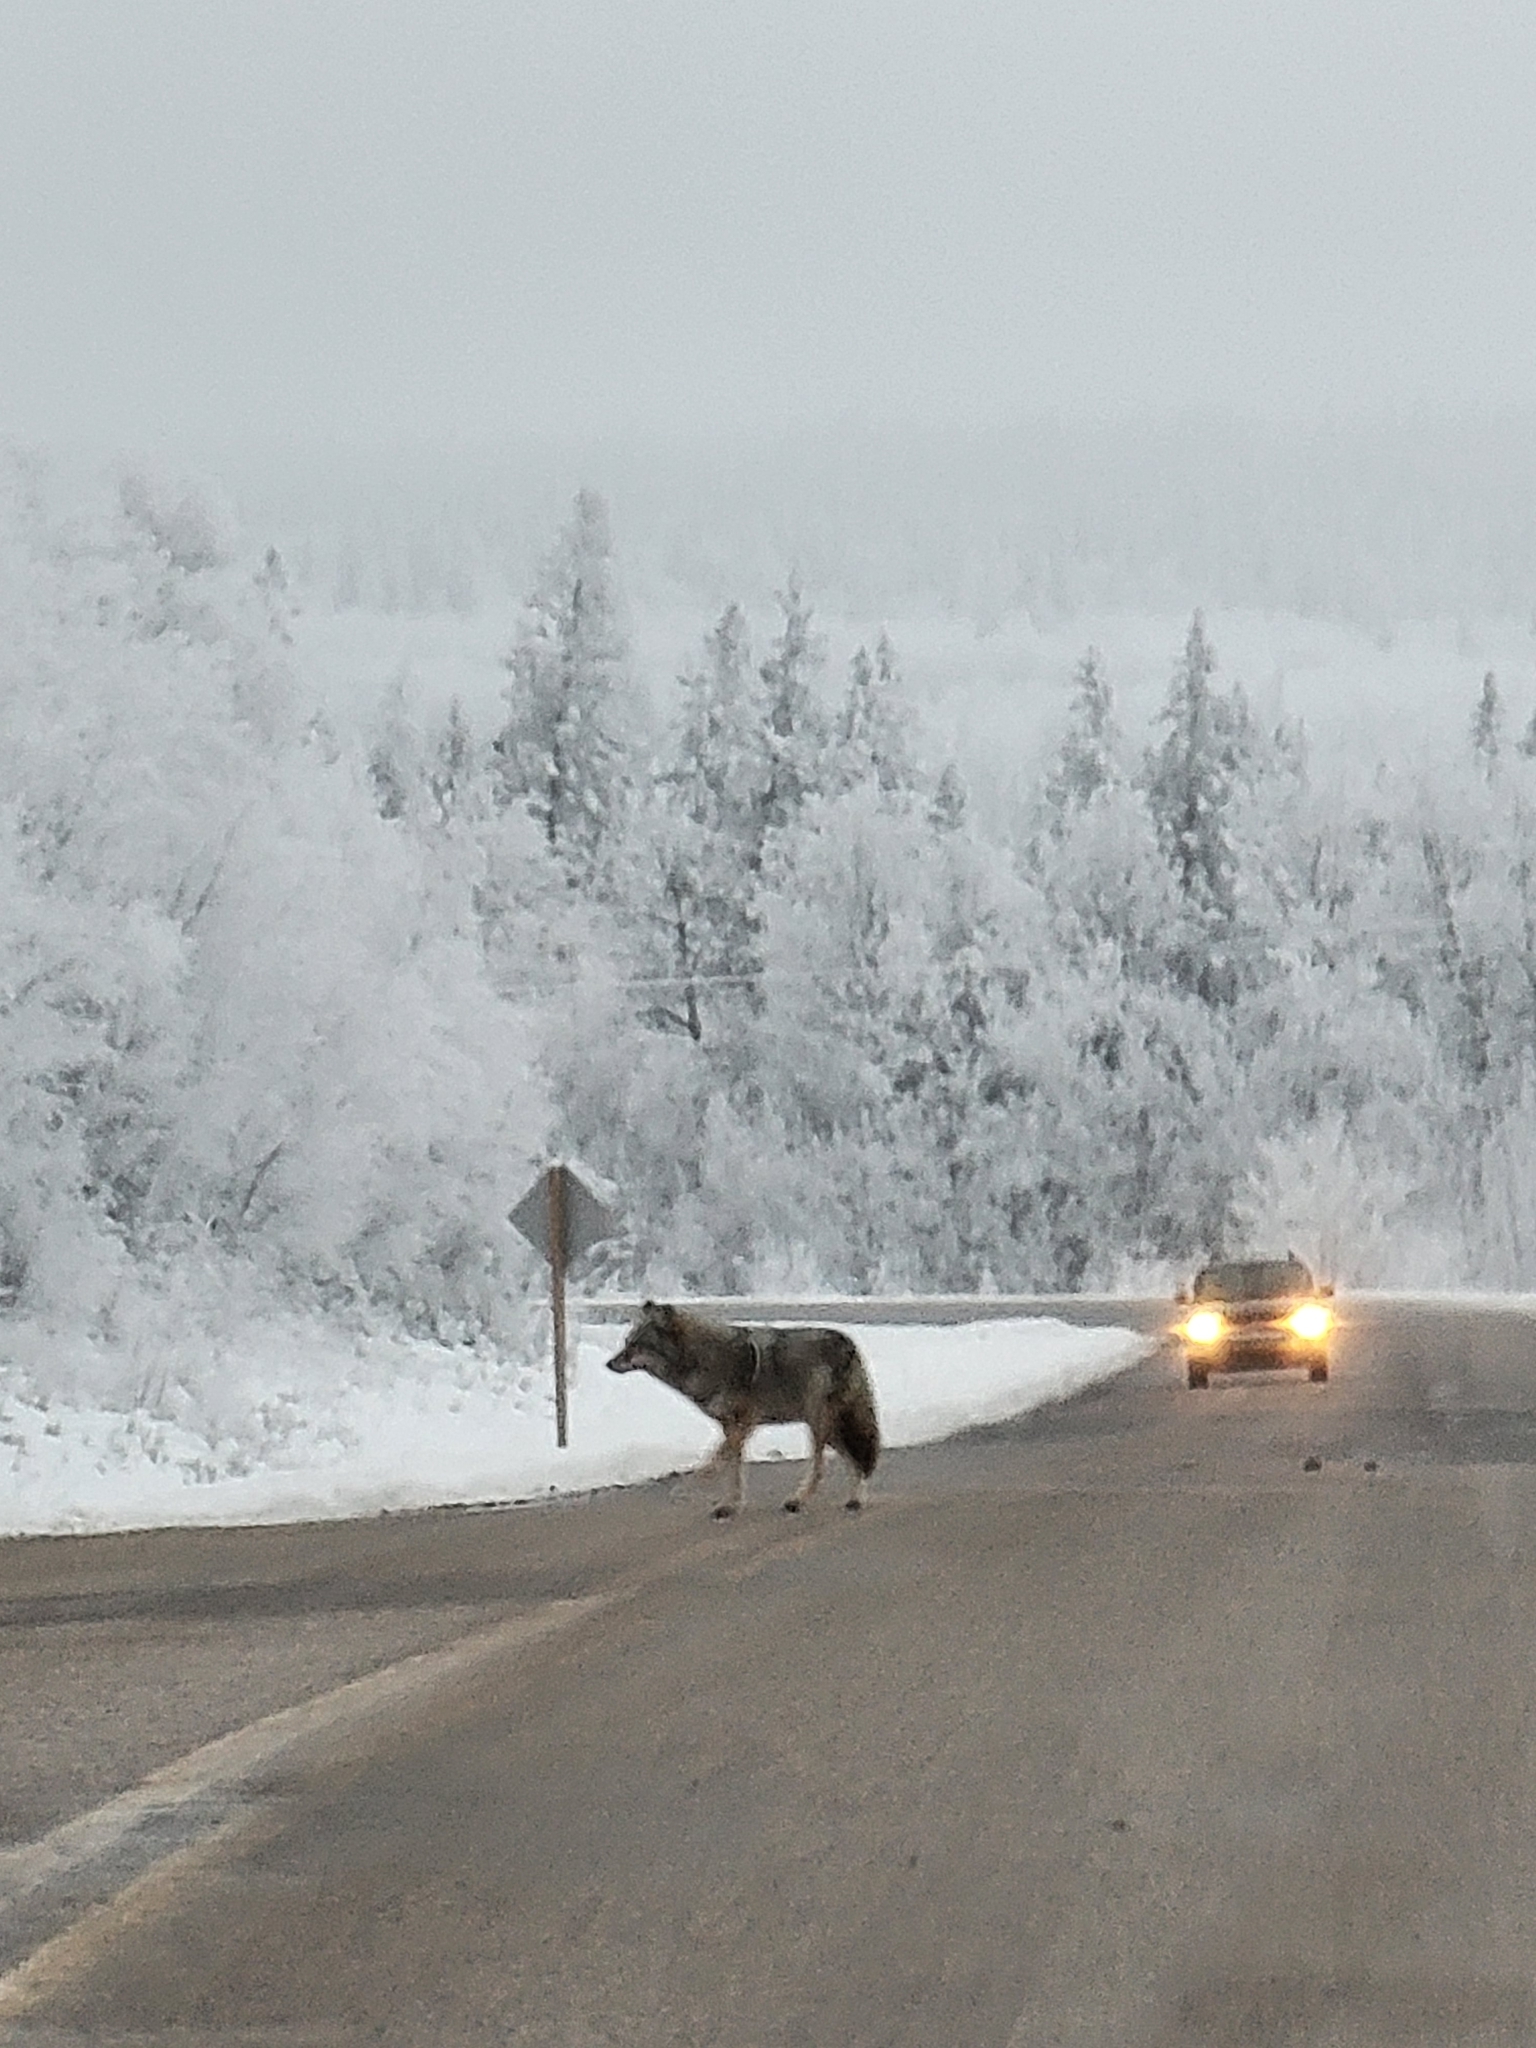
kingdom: Animalia
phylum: Chordata
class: Mammalia
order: Carnivora
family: Canidae
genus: Canis
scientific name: Canis latrans
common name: Coyote
